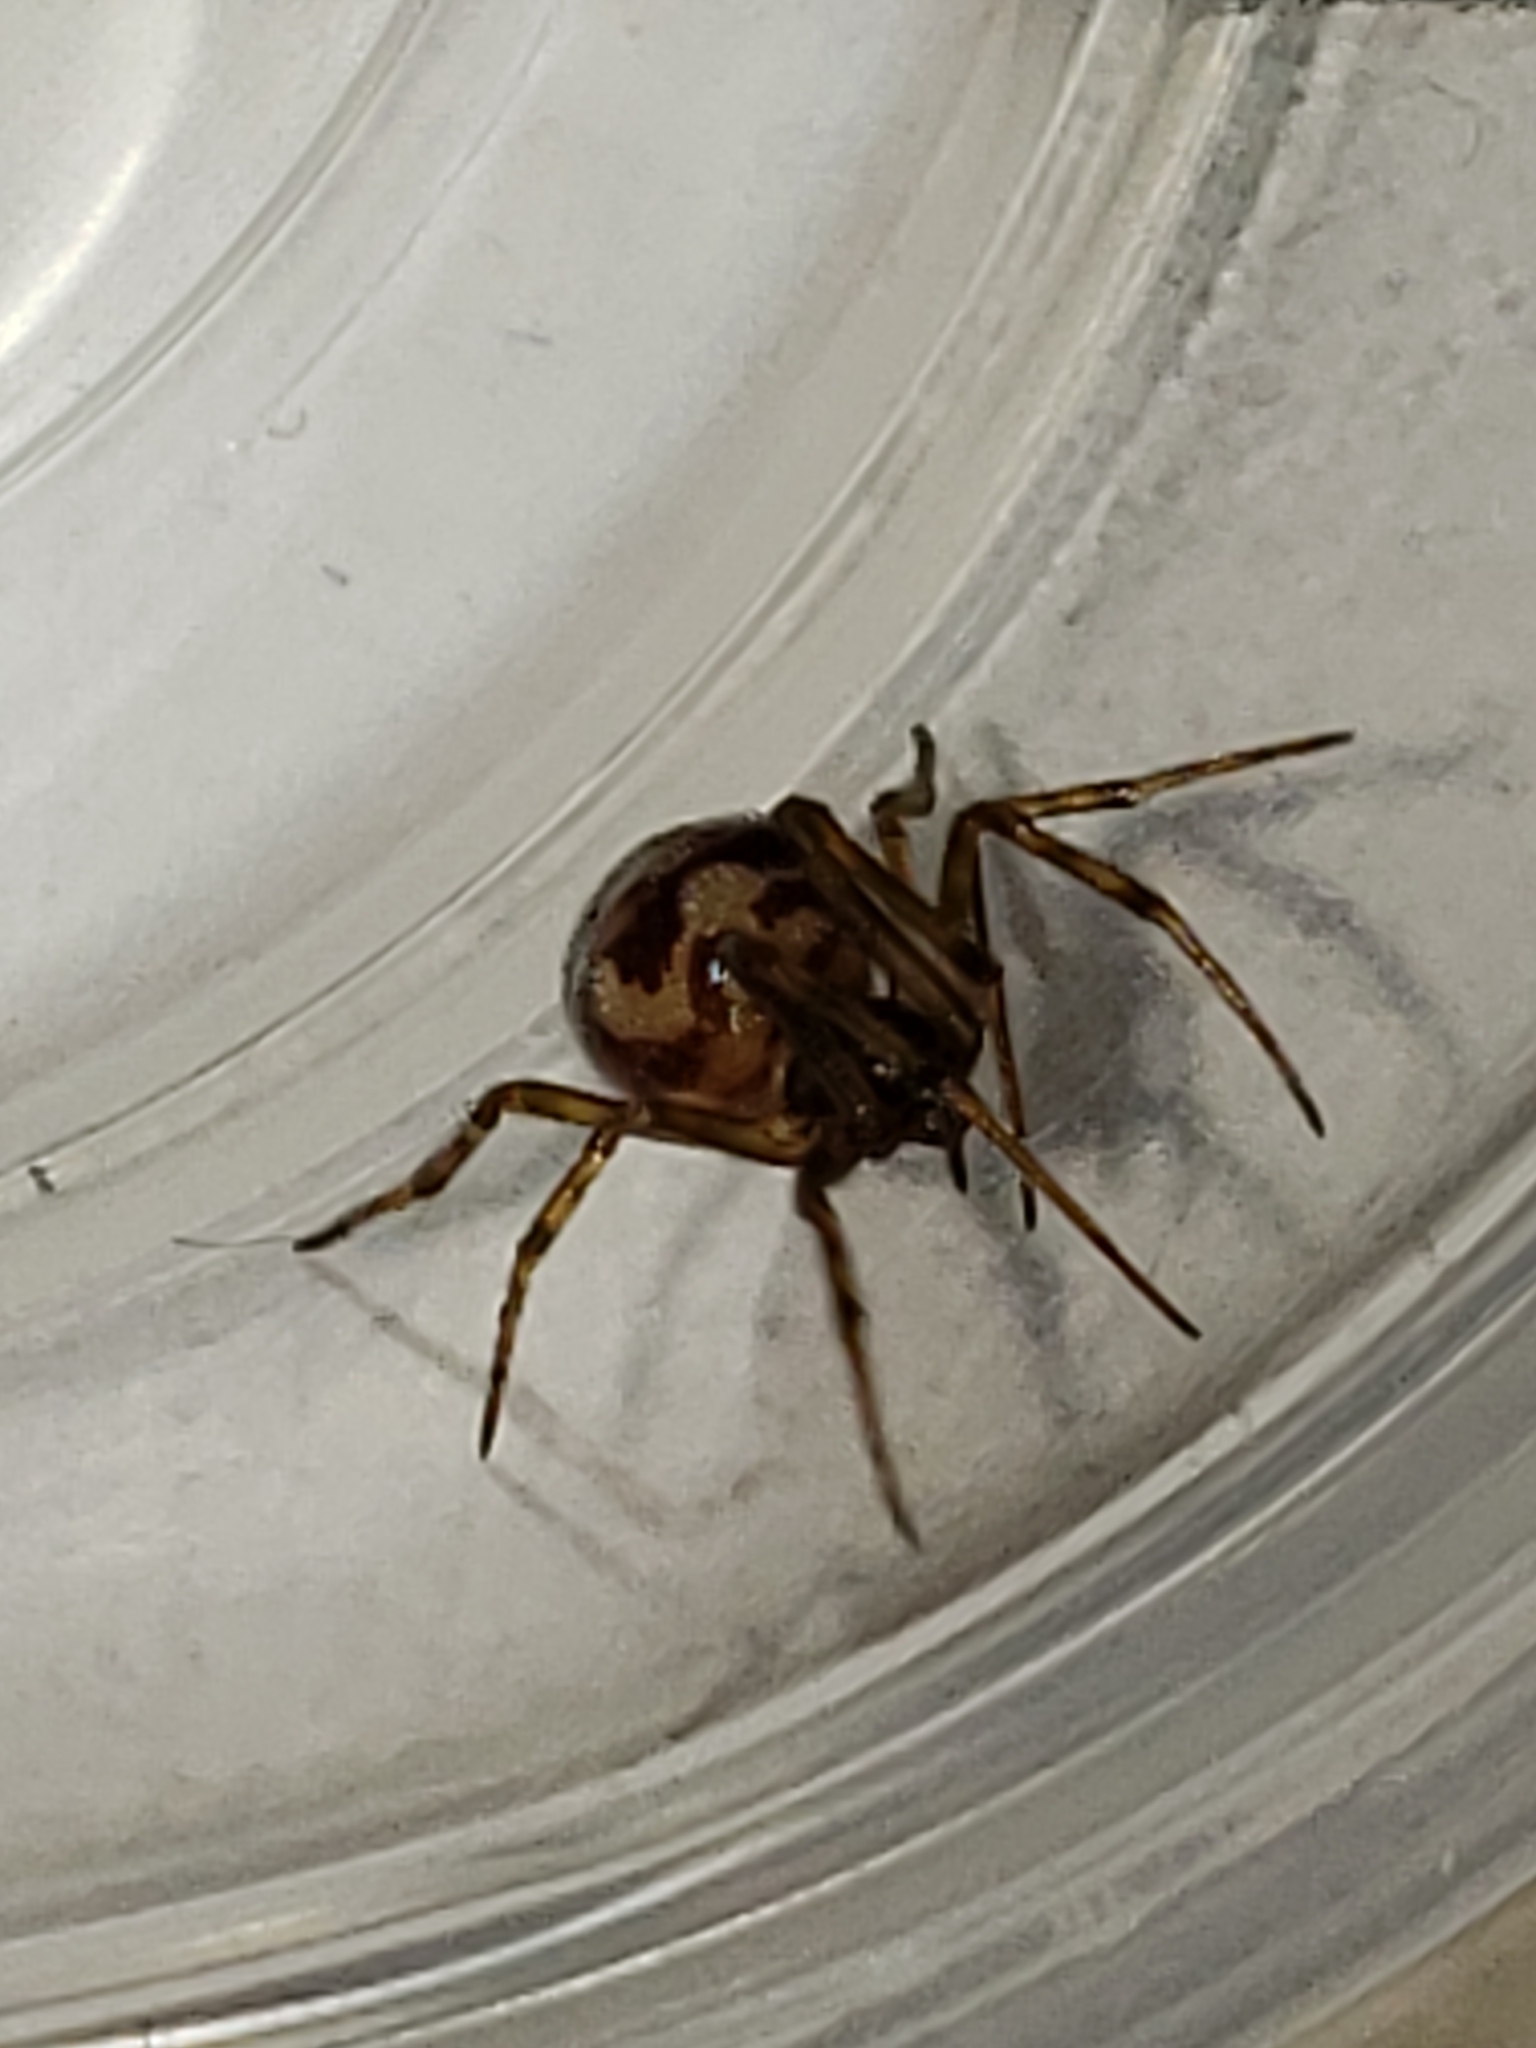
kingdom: Animalia
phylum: Arthropoda
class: Arachnida
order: Araneae
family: Theridiidae
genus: Steatoda
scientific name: Steatoda triangulosa
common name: Triangulate bud spider
